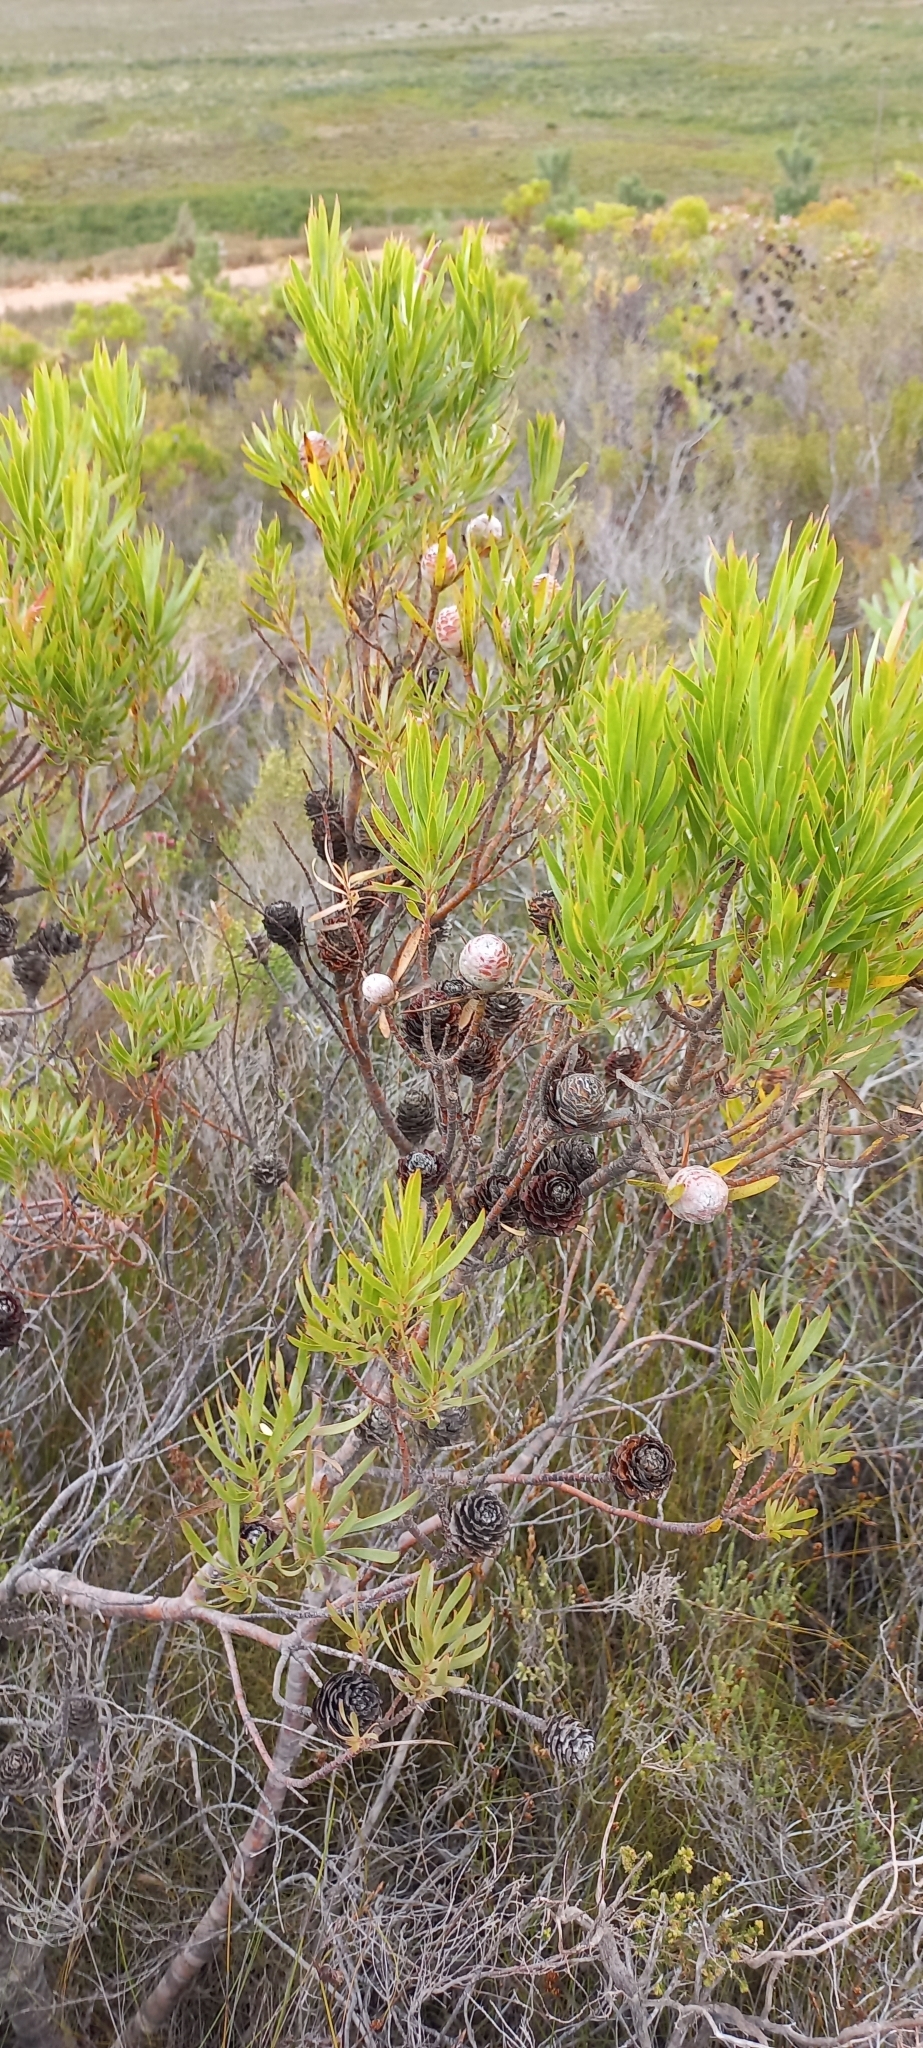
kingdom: Plantae
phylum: Tracheophyta
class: Magnoliopsida
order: Proteales
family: Proteaceae
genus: Leucadendron
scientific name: Leucadendron xanthoconus
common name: Sickle-leaf conebush
